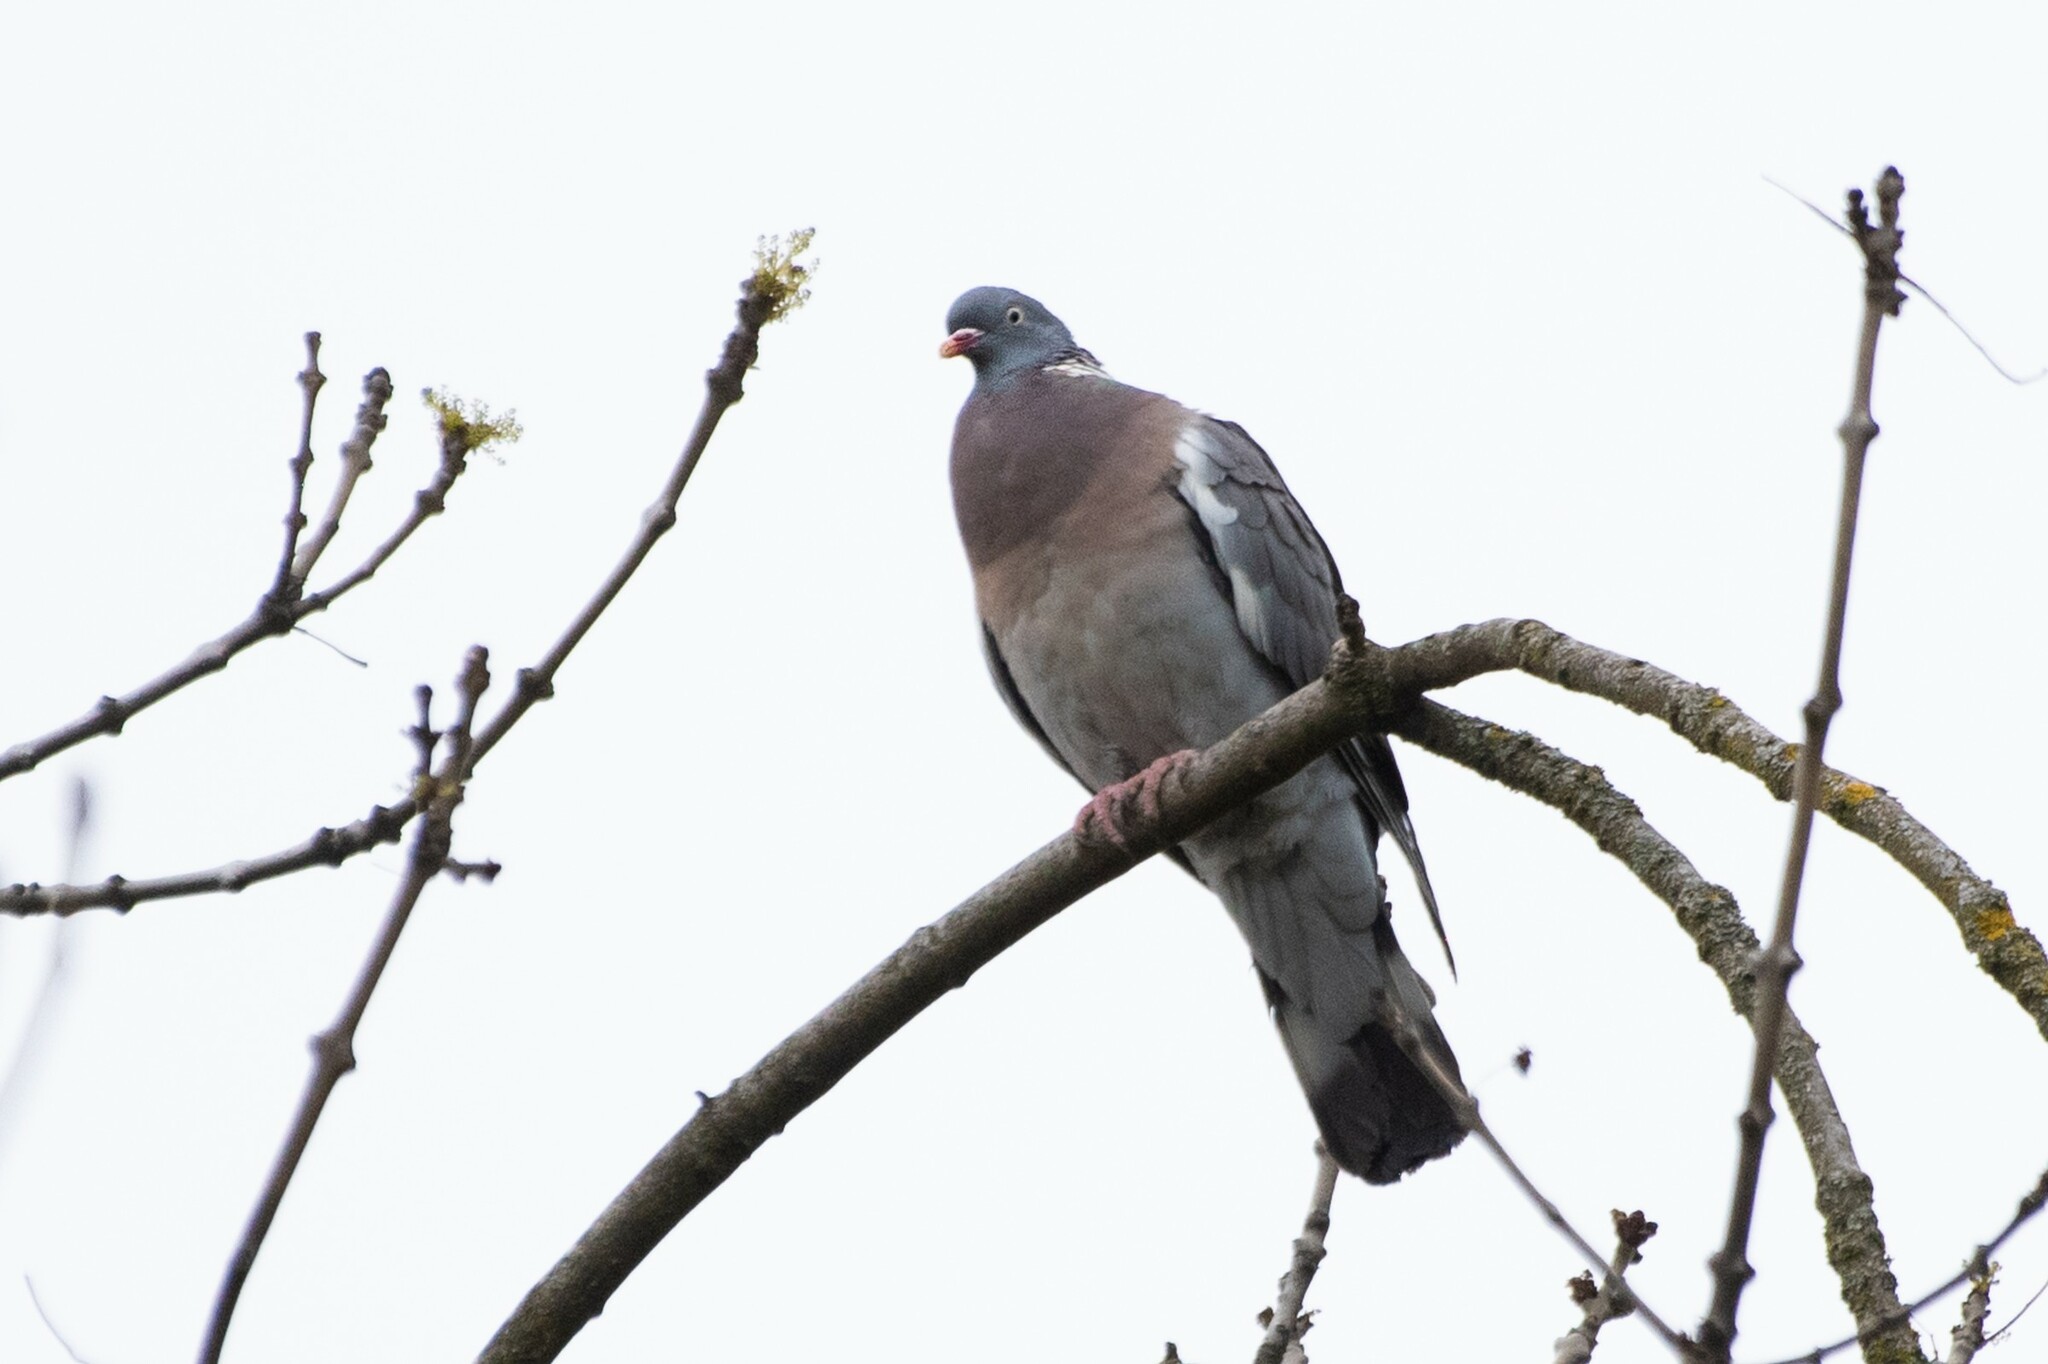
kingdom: Animalia
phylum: Chordata
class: Aves
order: Columbiformes
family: Columbidae
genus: Columba
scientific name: Columba palumbus
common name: Common wood pigeon
